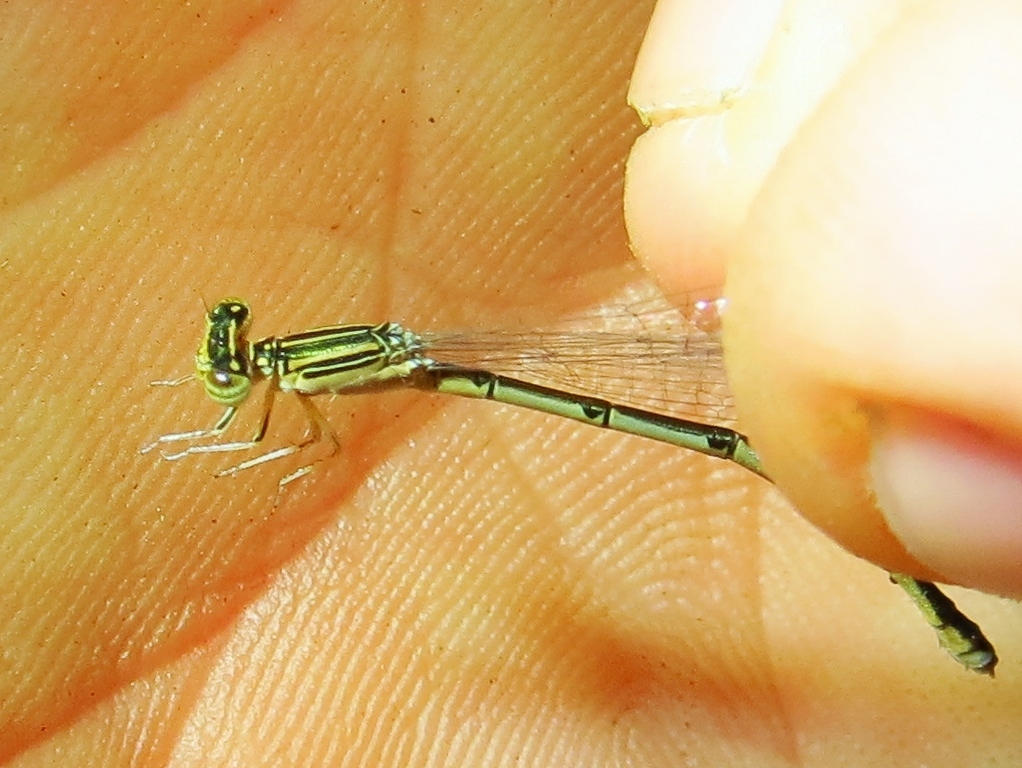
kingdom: Animalia
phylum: Arthropoda
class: Insecta
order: Odonata
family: Coenagrionidae
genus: Enallagma
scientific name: Enallagma basidens
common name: Double-striped bluet
